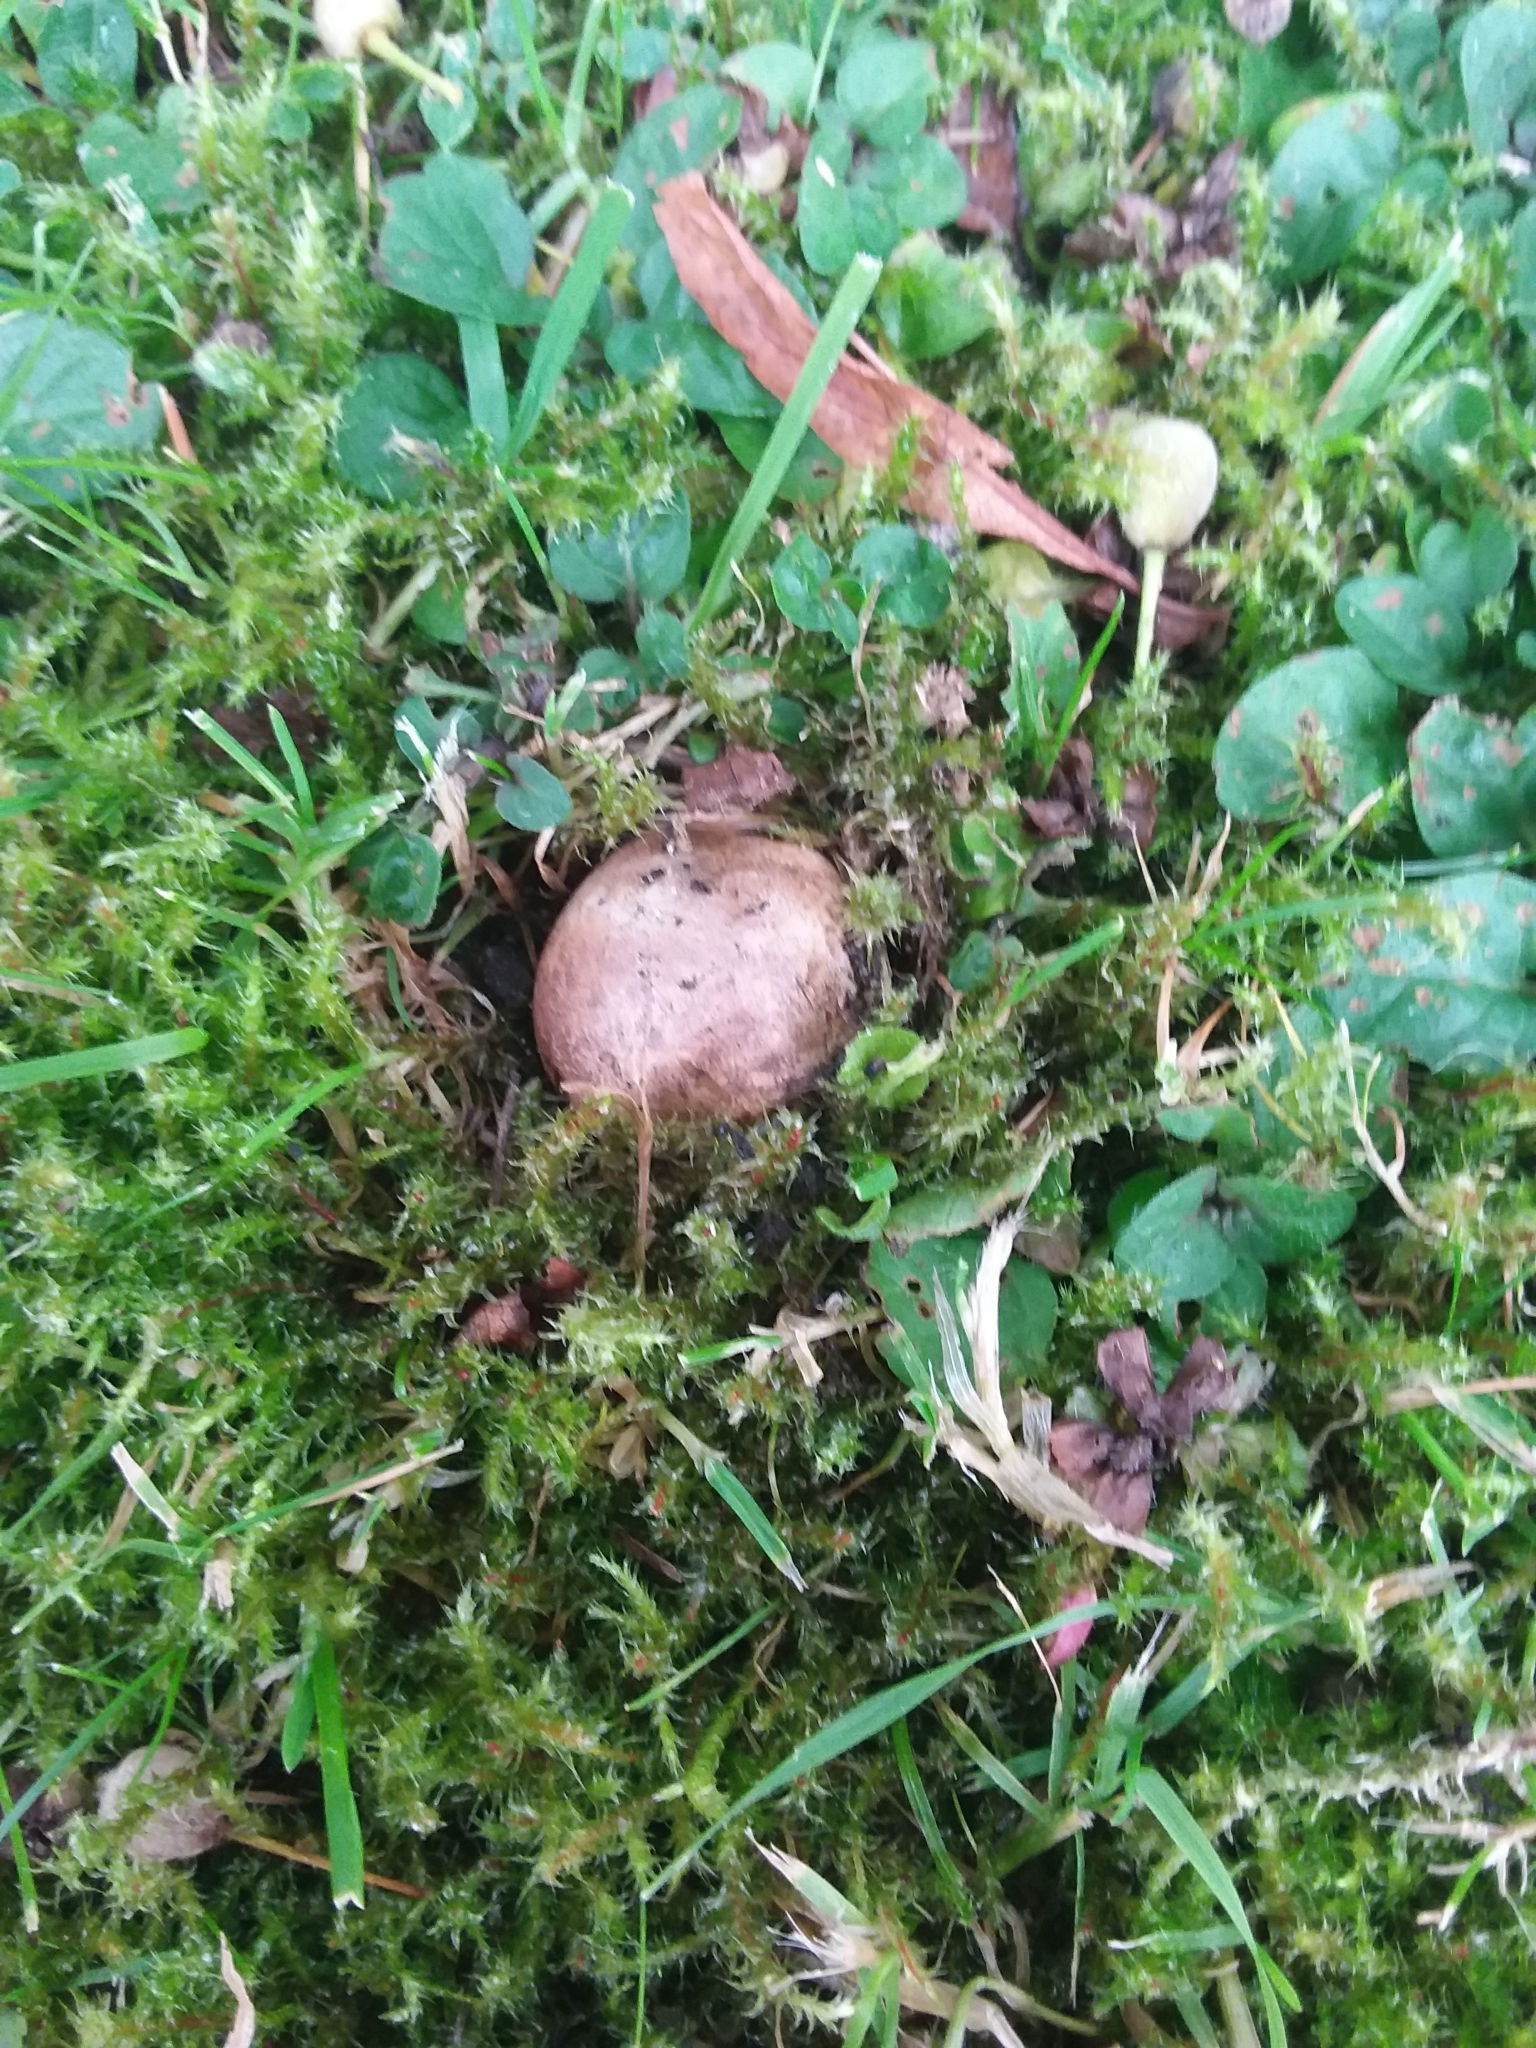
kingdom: Fungi
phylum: Basidiomycota
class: Agaricomycetes
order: Boletales
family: Sclerodermataceae
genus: Scleroderma
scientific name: Scleroderma cepa
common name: Onion earthball
